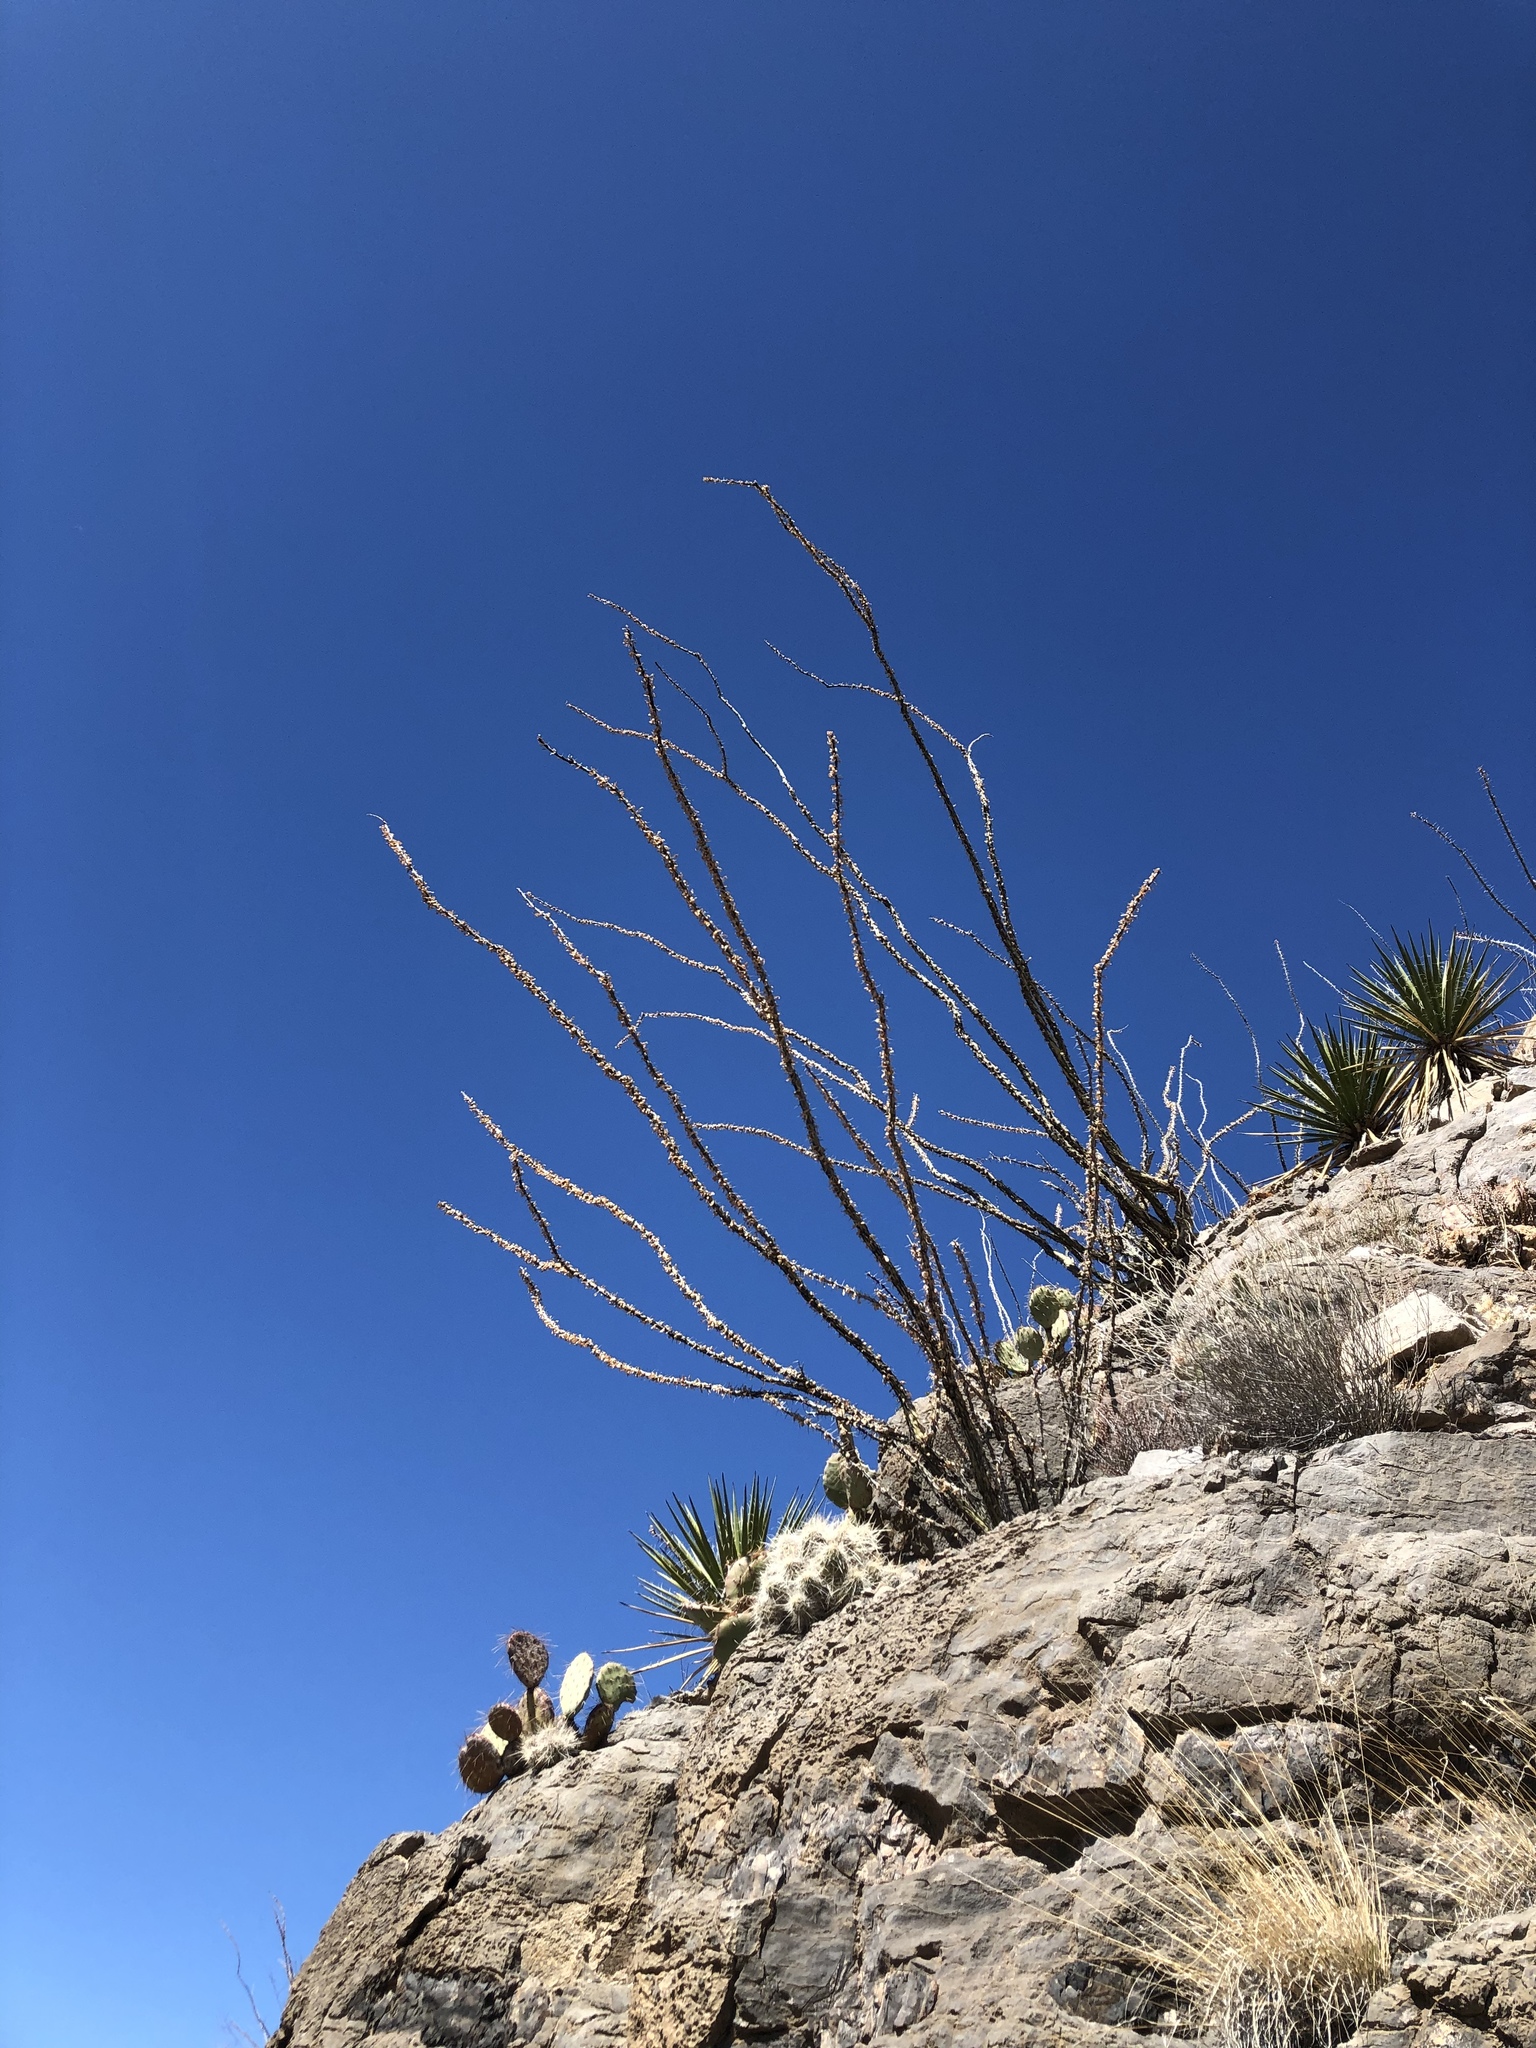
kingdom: Plantae
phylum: Tracheophyta
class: Magnoliopsida
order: Ericales
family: Fouquieriaceae
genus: Fouquieria
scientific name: Fouquieria splendens
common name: Vine-cactus
